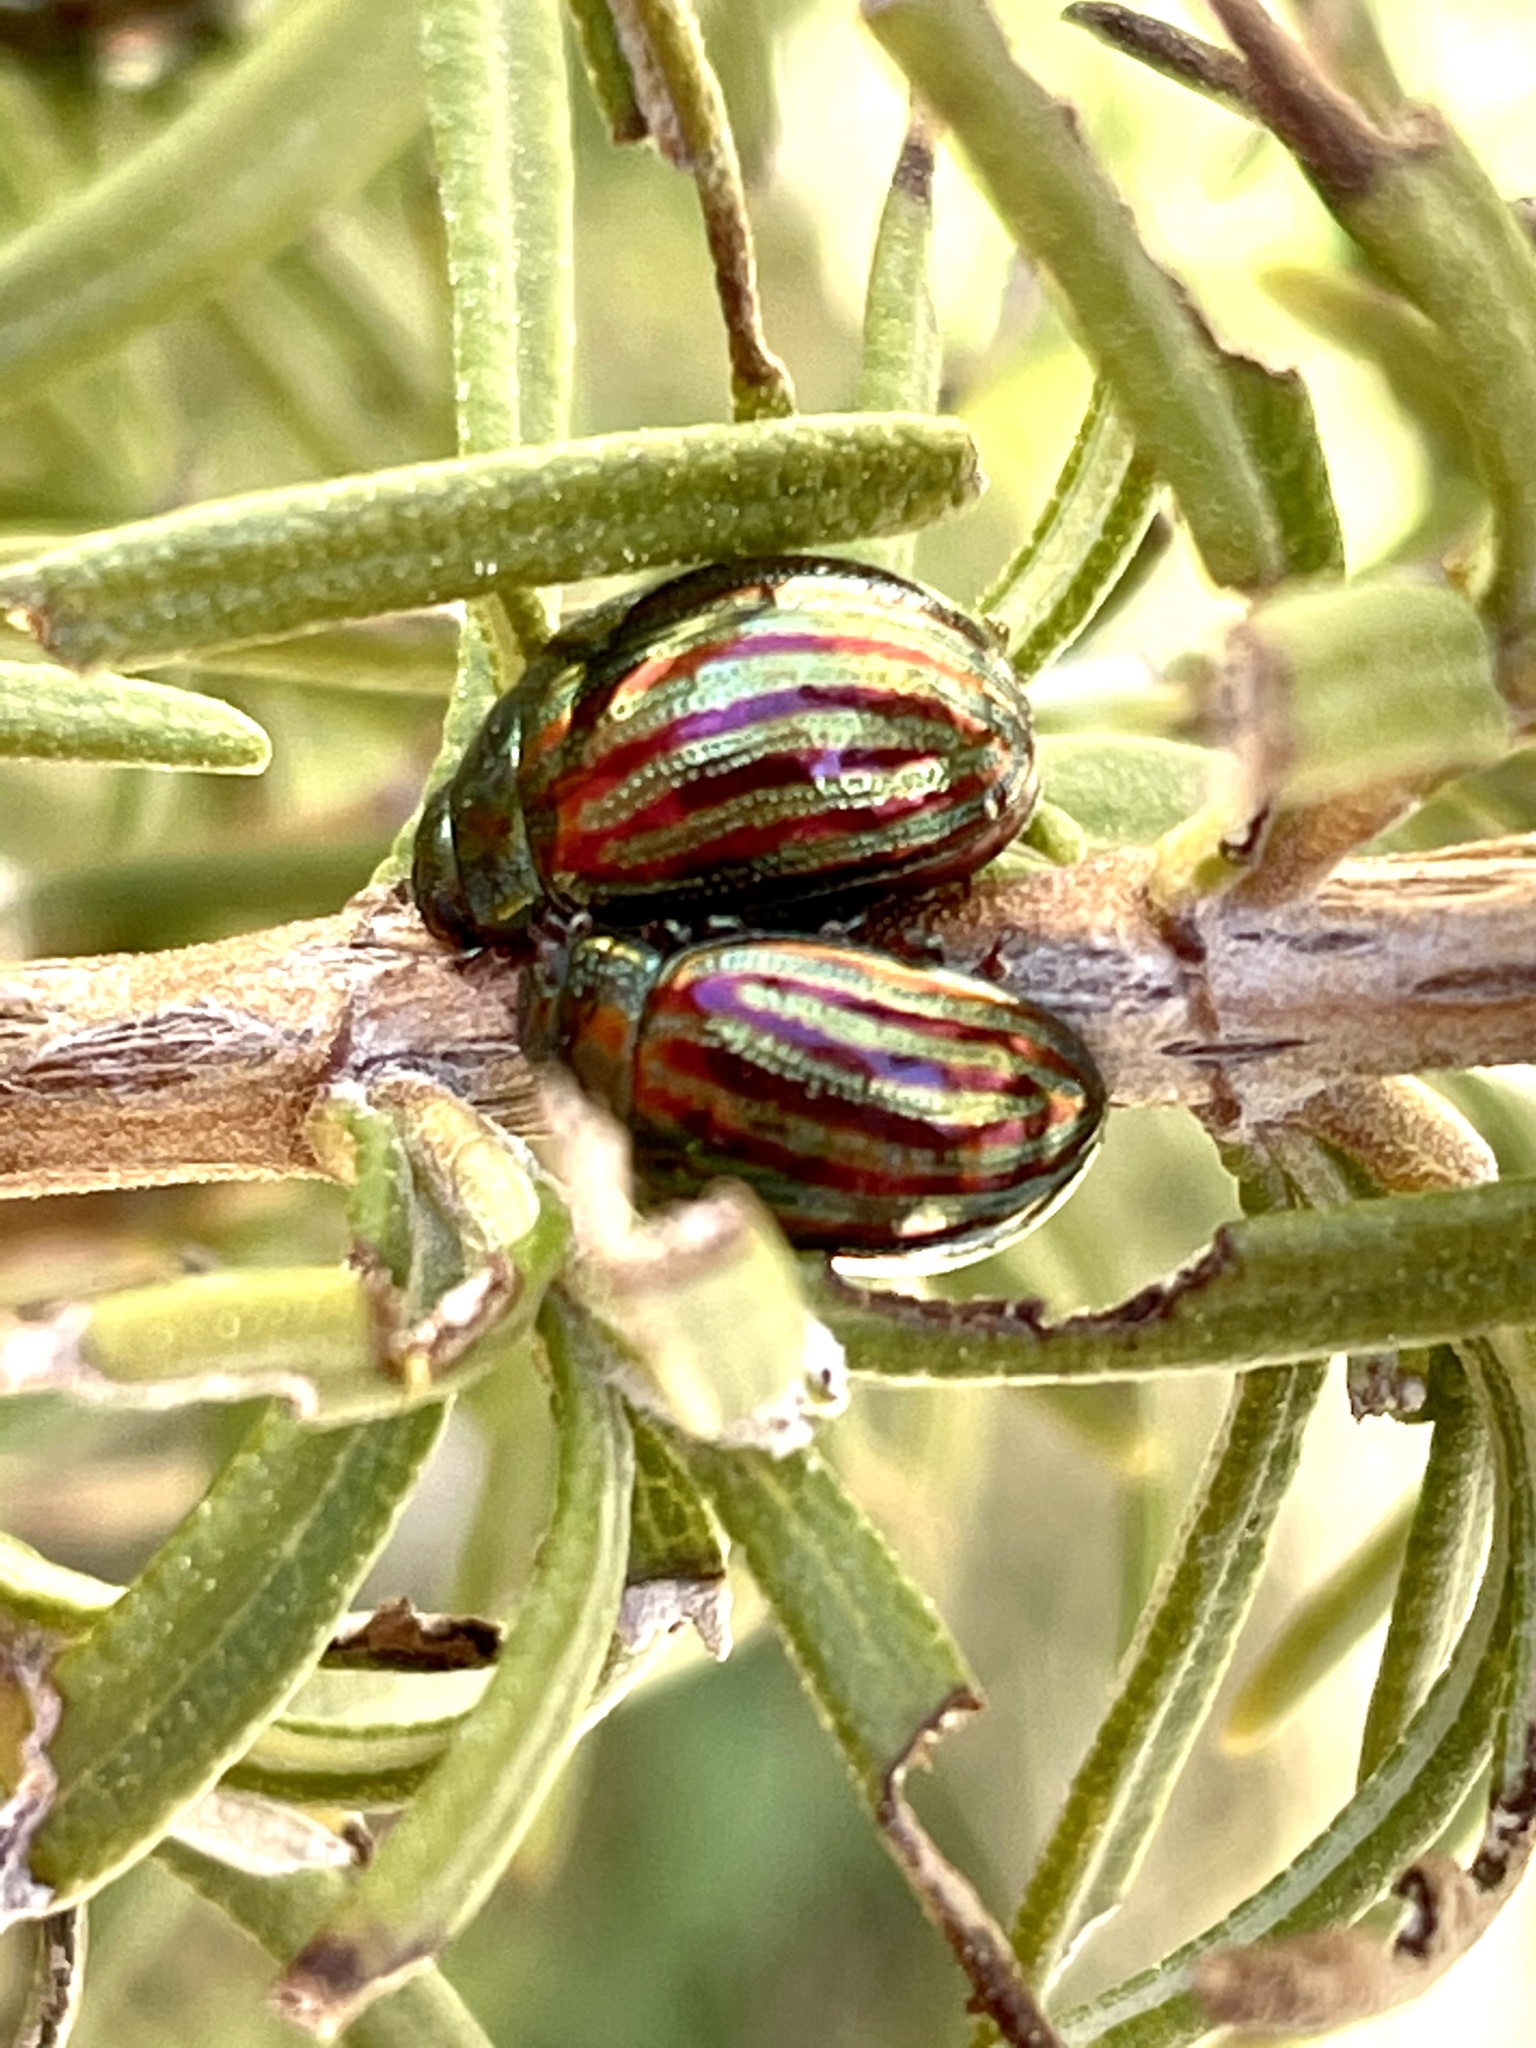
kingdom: Animalia
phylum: Arthropoda
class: Insecta
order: Coleoptera
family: Chrysomelidae
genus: Chrysolina
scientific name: Chrysolina americana
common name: Rosemary beetle
